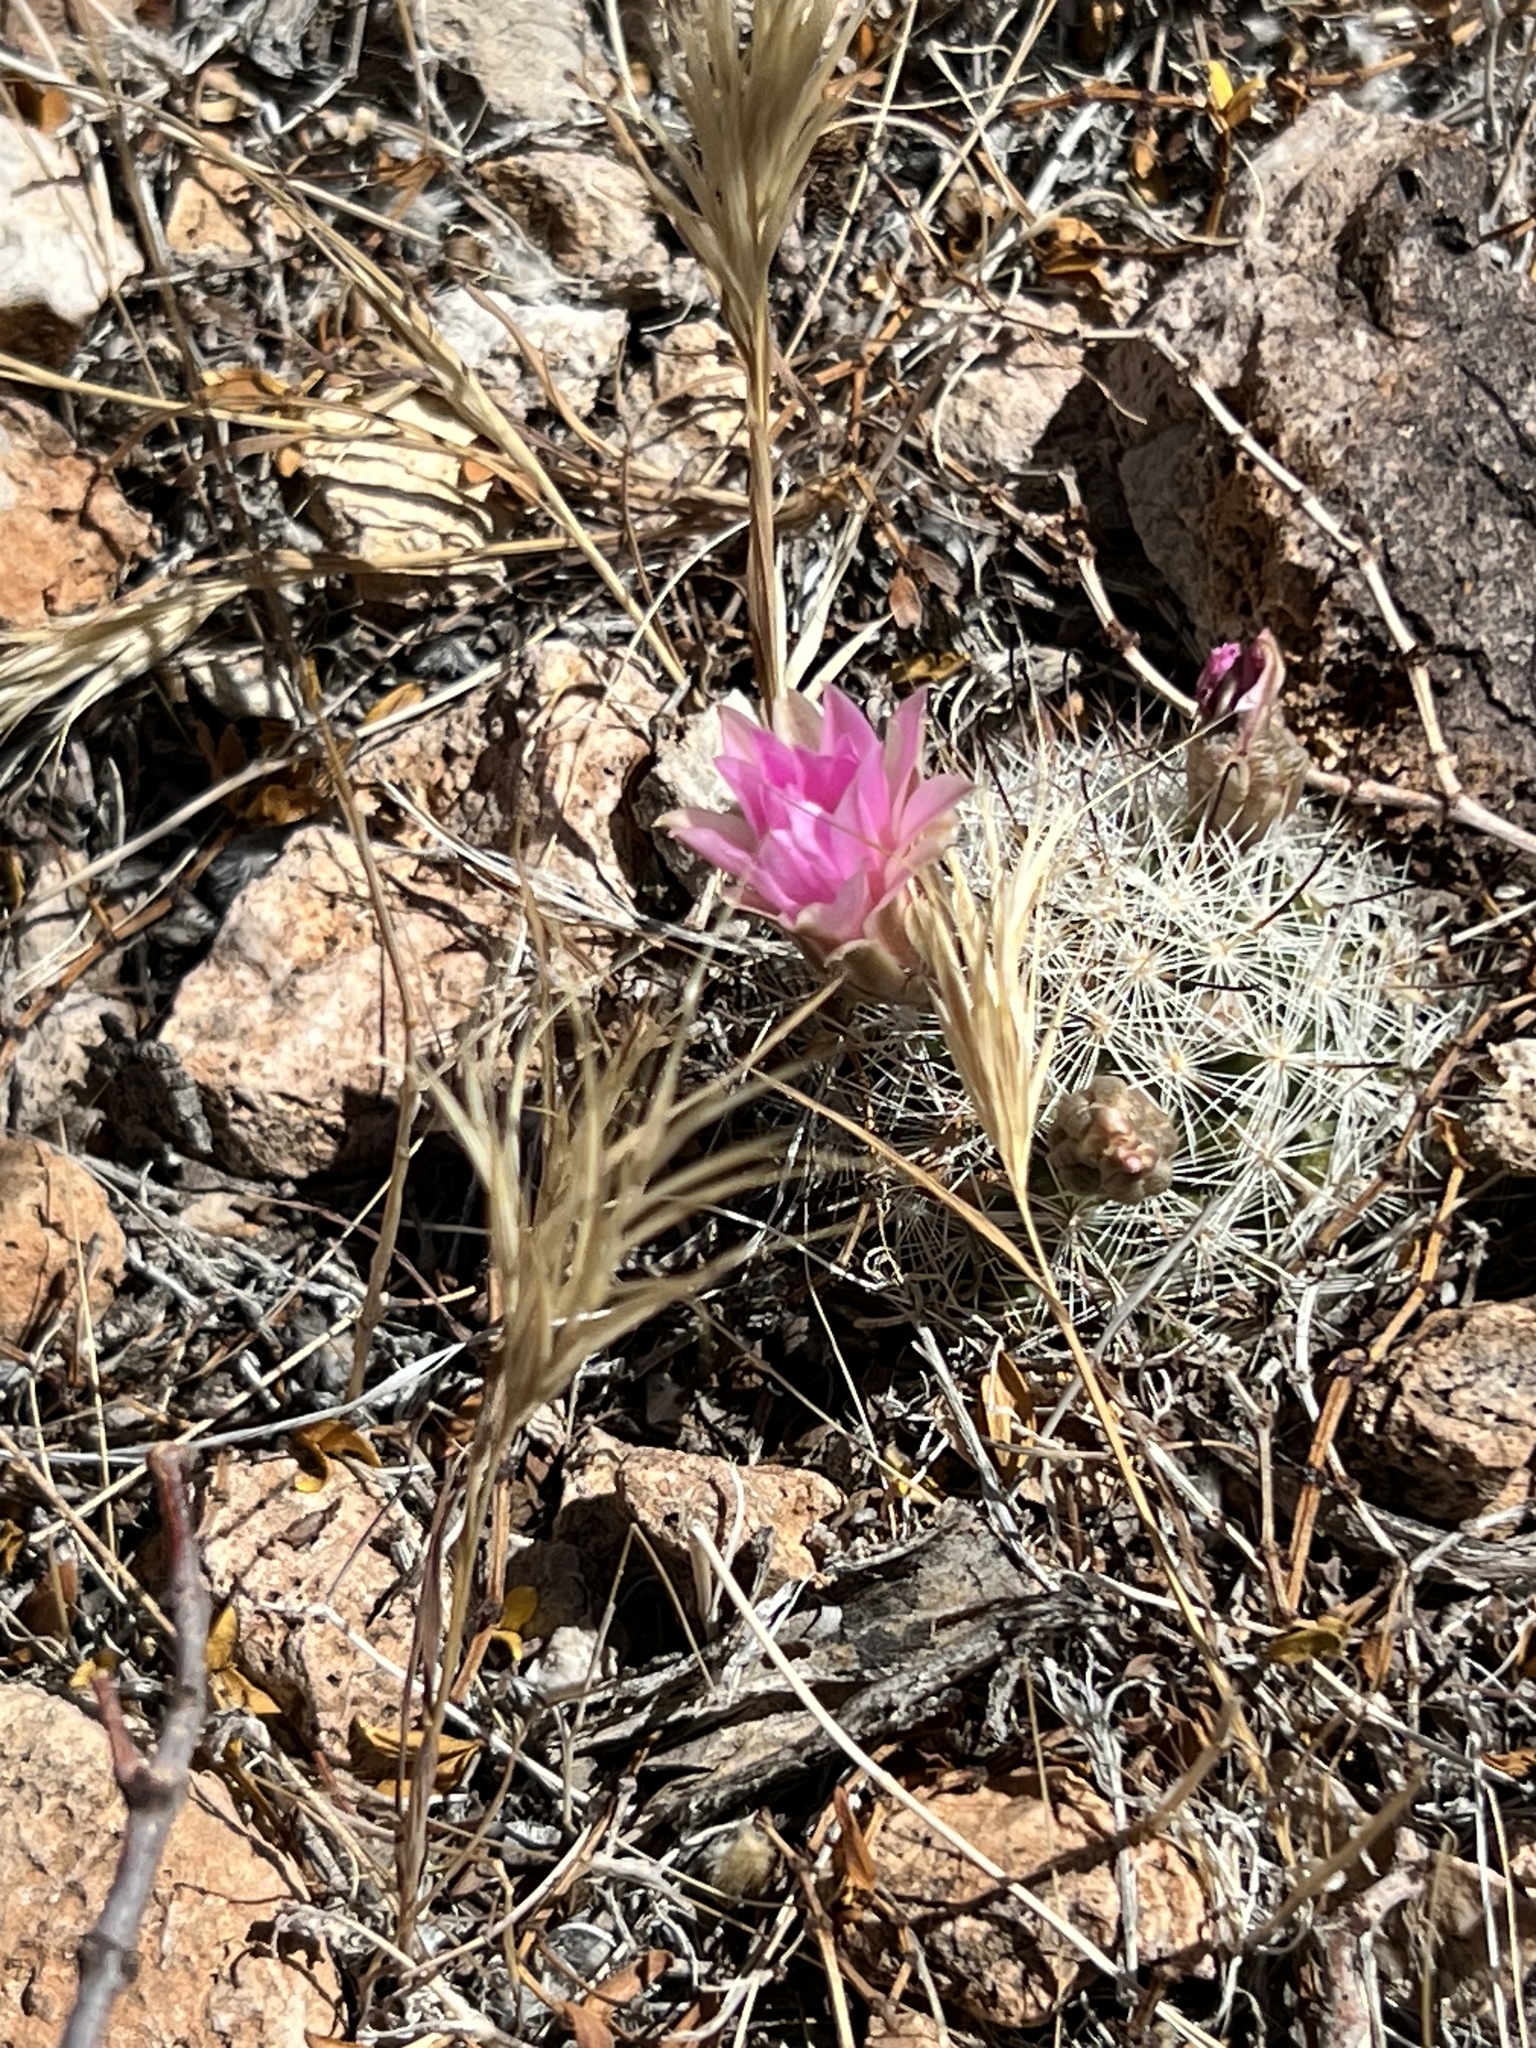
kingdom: Plantae
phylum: Tracheophyta
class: Magnoliopsida
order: Caryophyllales
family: Cactaceae
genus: Cochemiea
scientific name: Cochemiea tetrancistra
